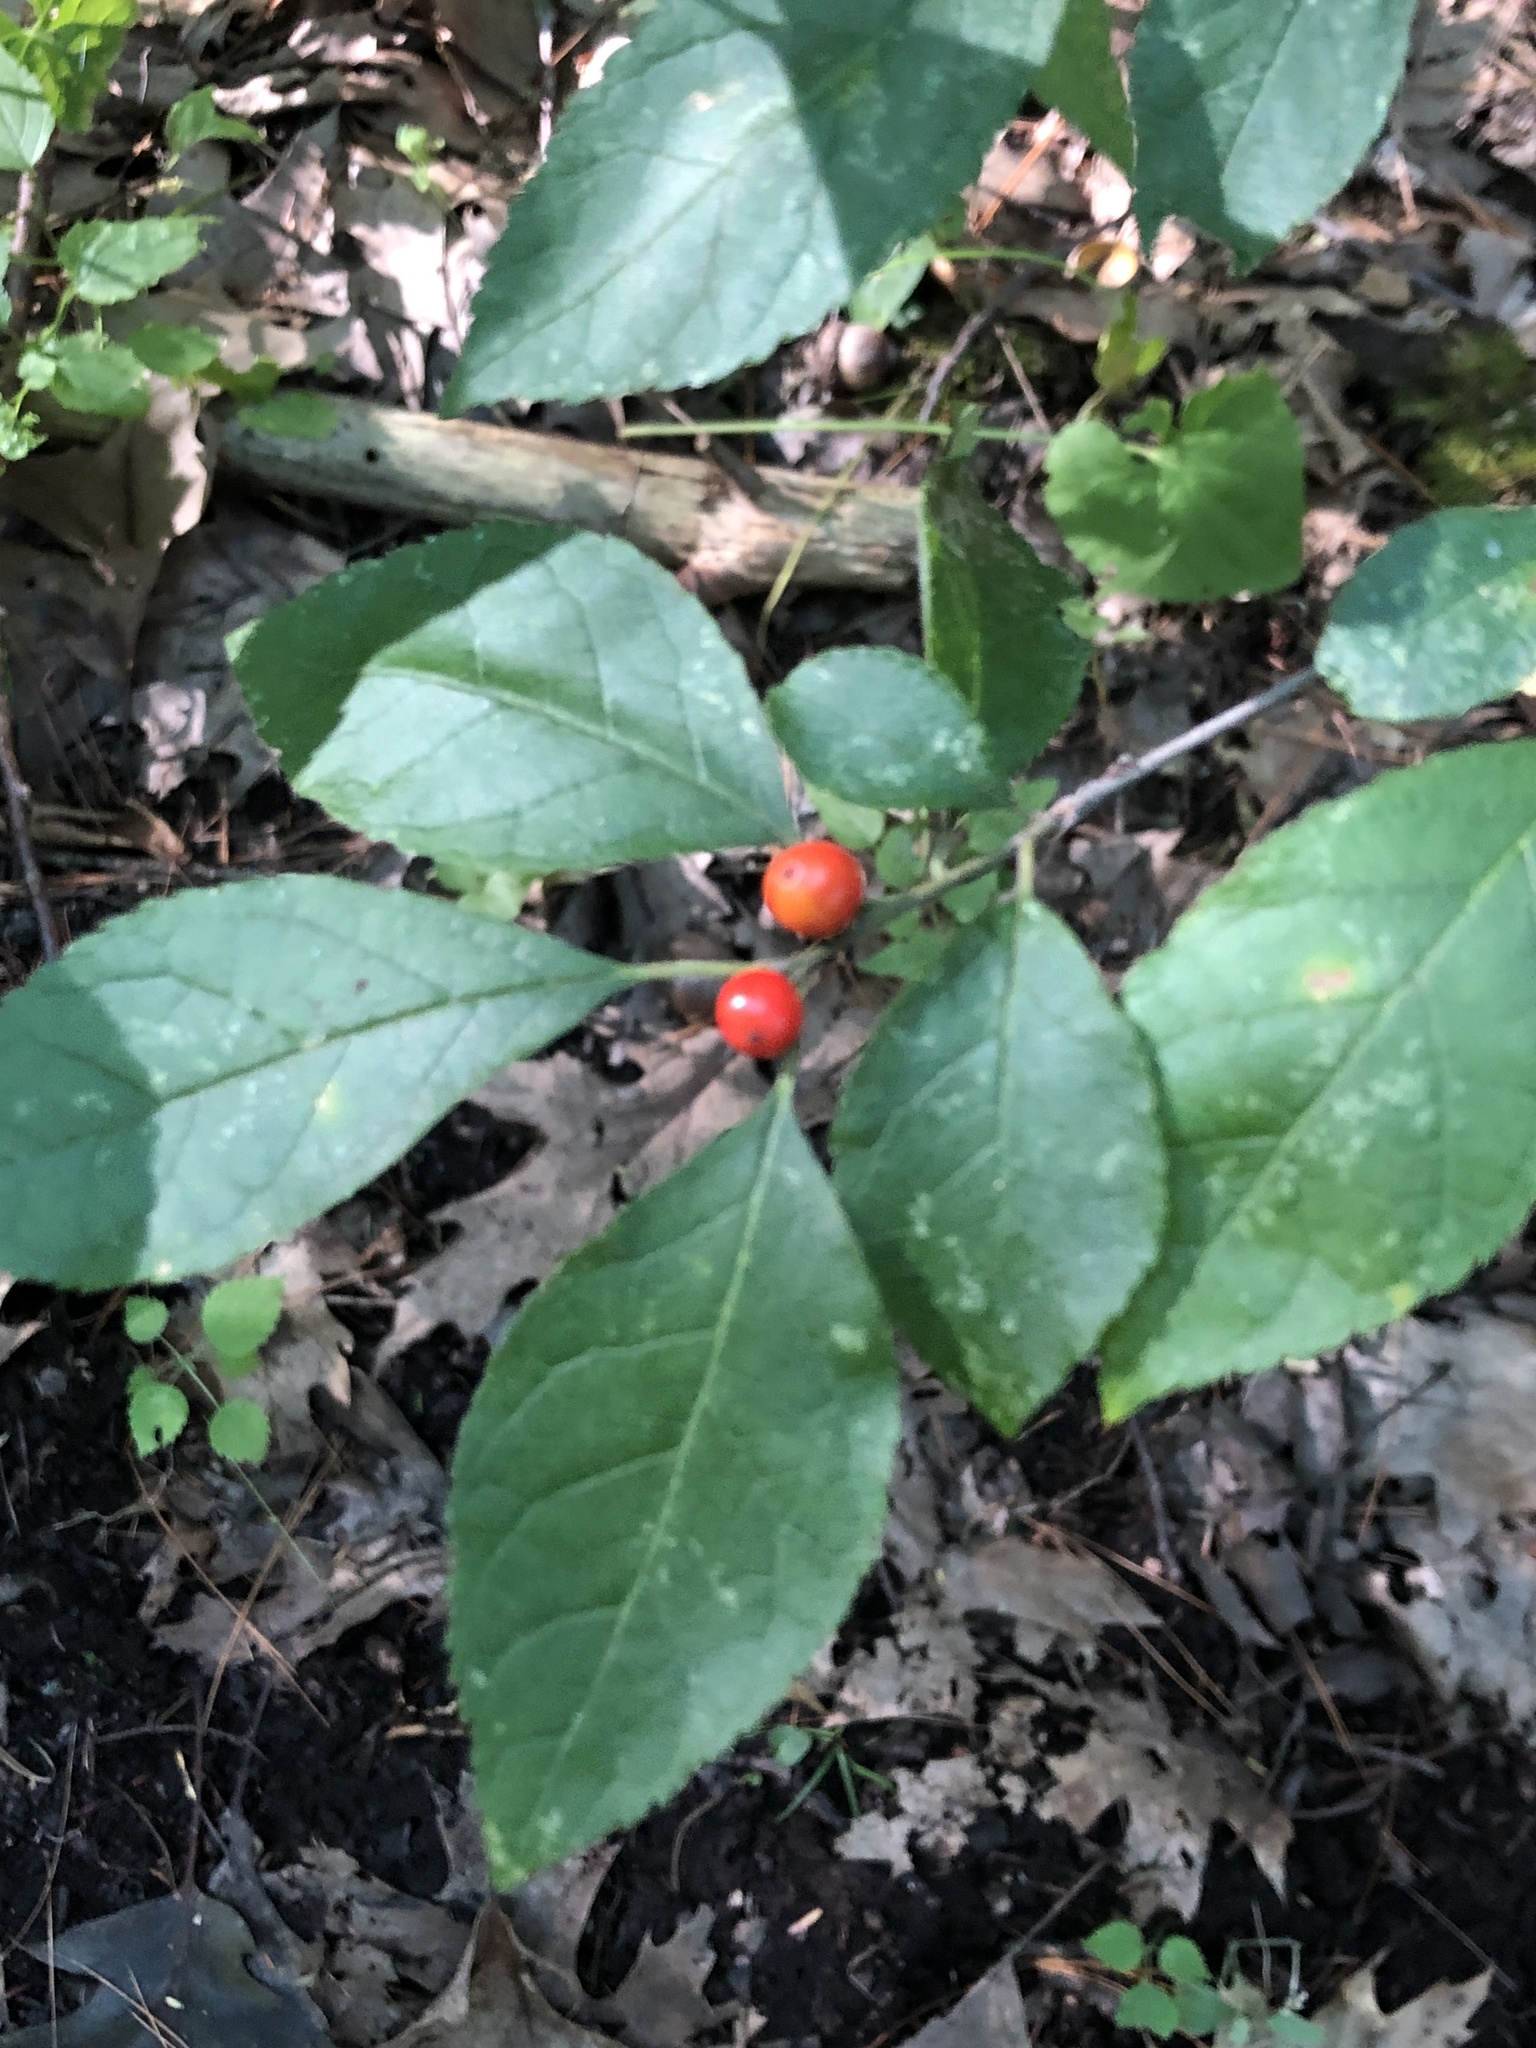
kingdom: Plantae
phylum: Tracheophyta
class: Magnoliopsida
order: Aquifoliales
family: Aquifoliaceae
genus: Ilex
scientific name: Ilex verticillata
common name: Virginia winterberry
